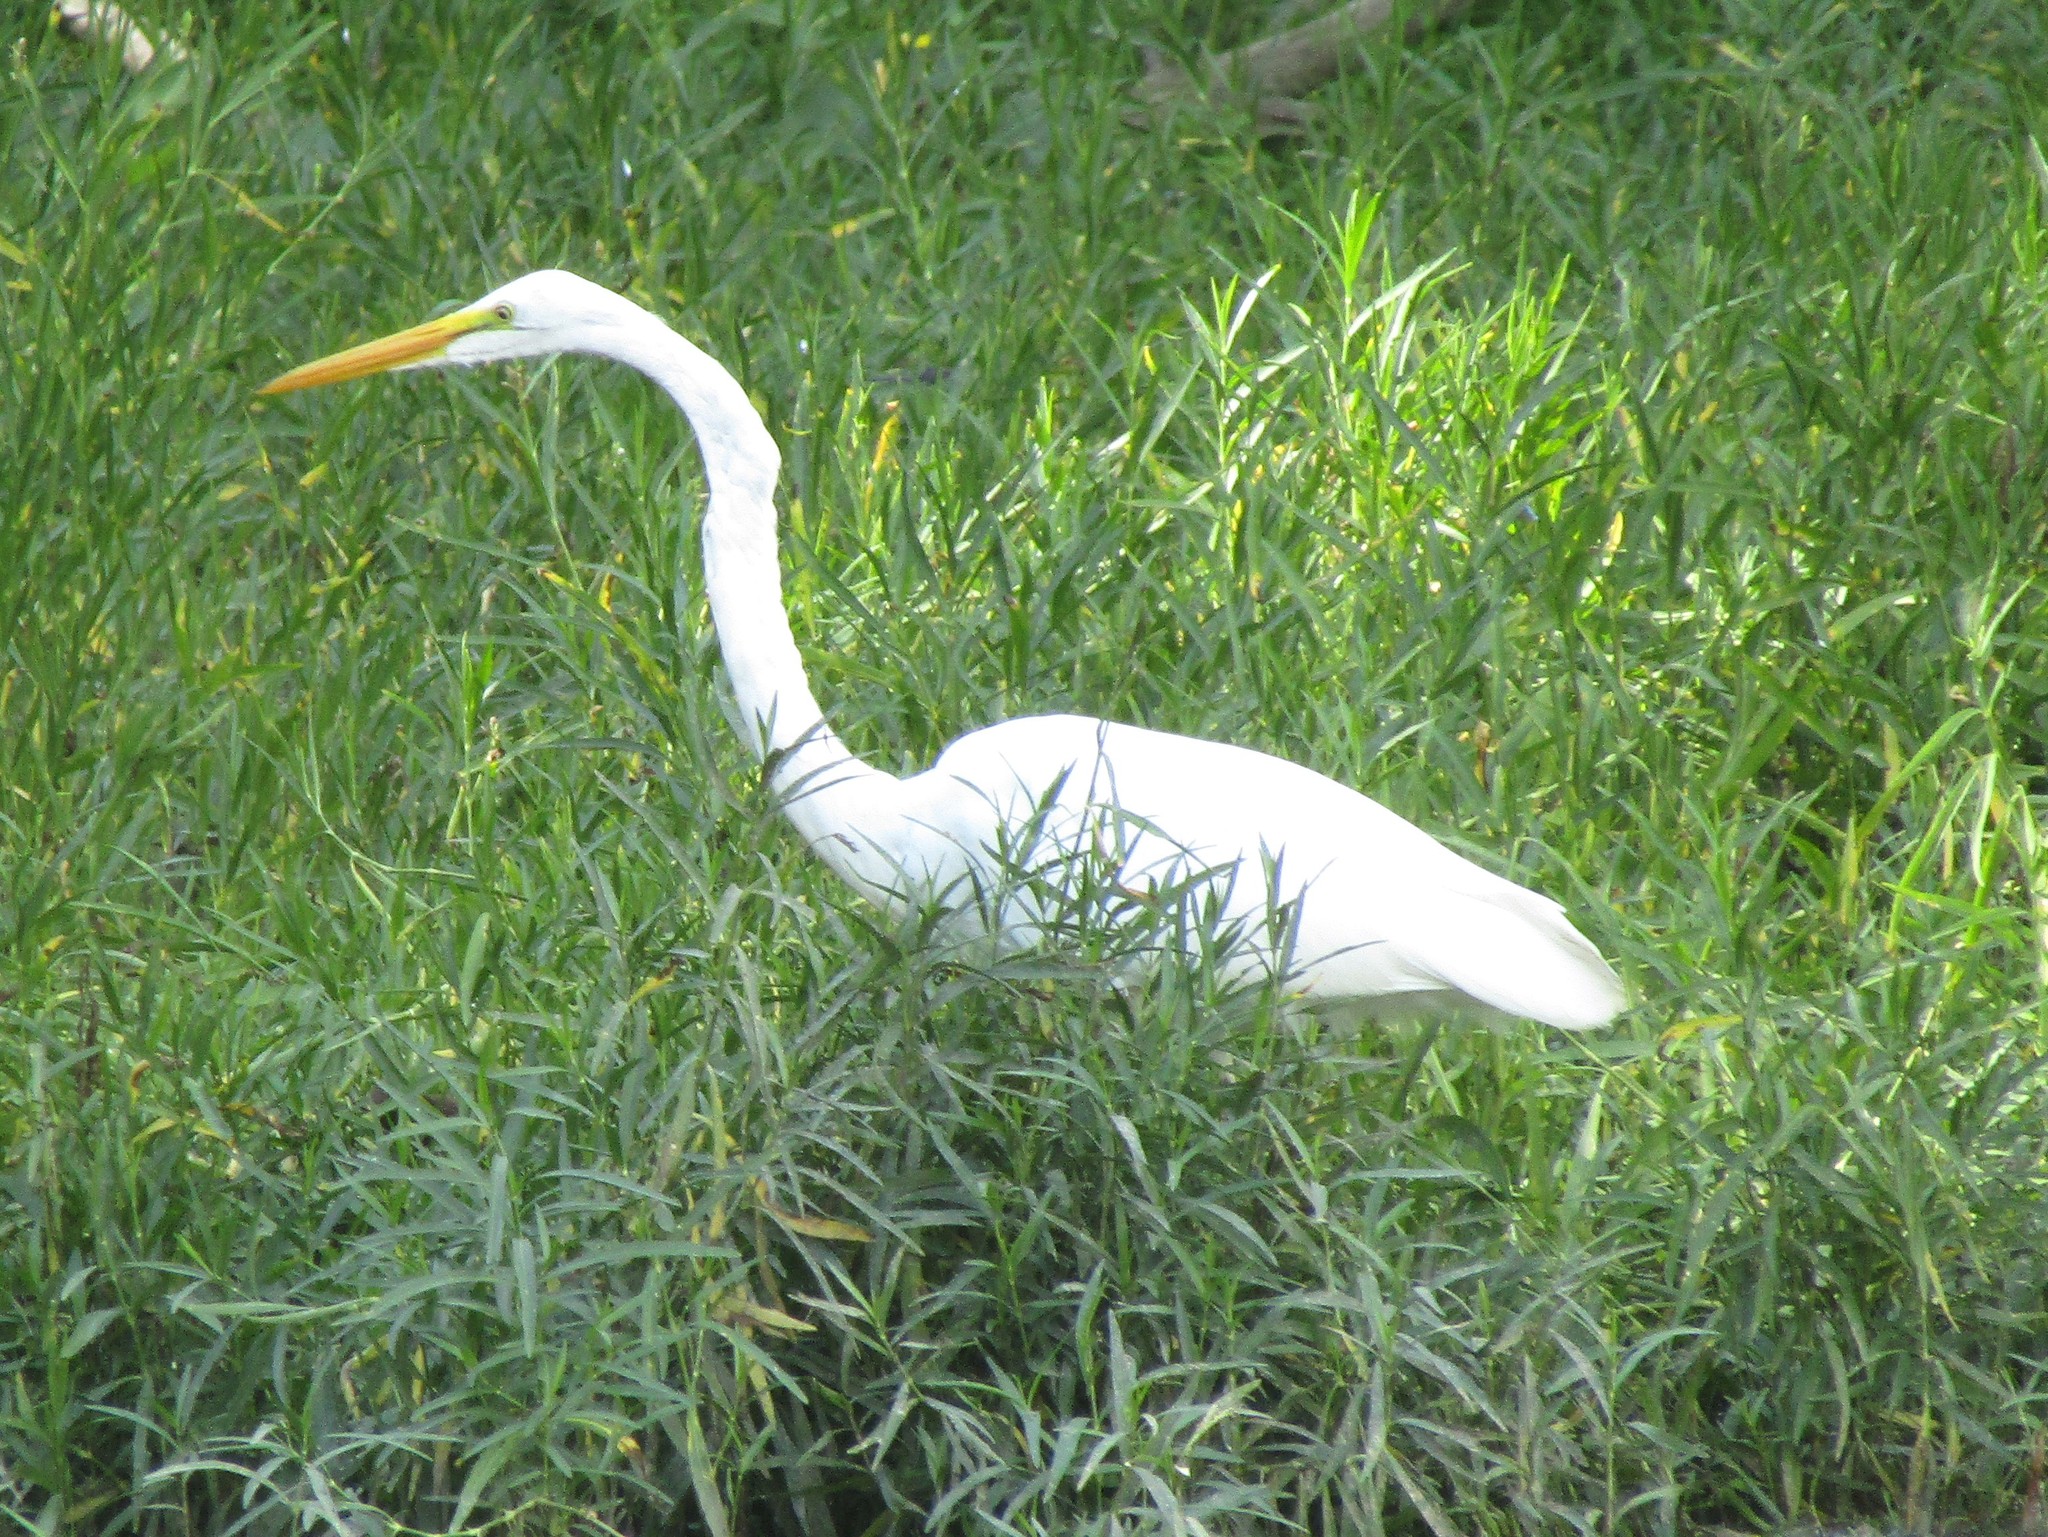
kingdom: Animalia
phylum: Chordata
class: Aves
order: Pelecaniformes
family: Ardeidae
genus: Ardea
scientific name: Ardea alba
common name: Great egret
